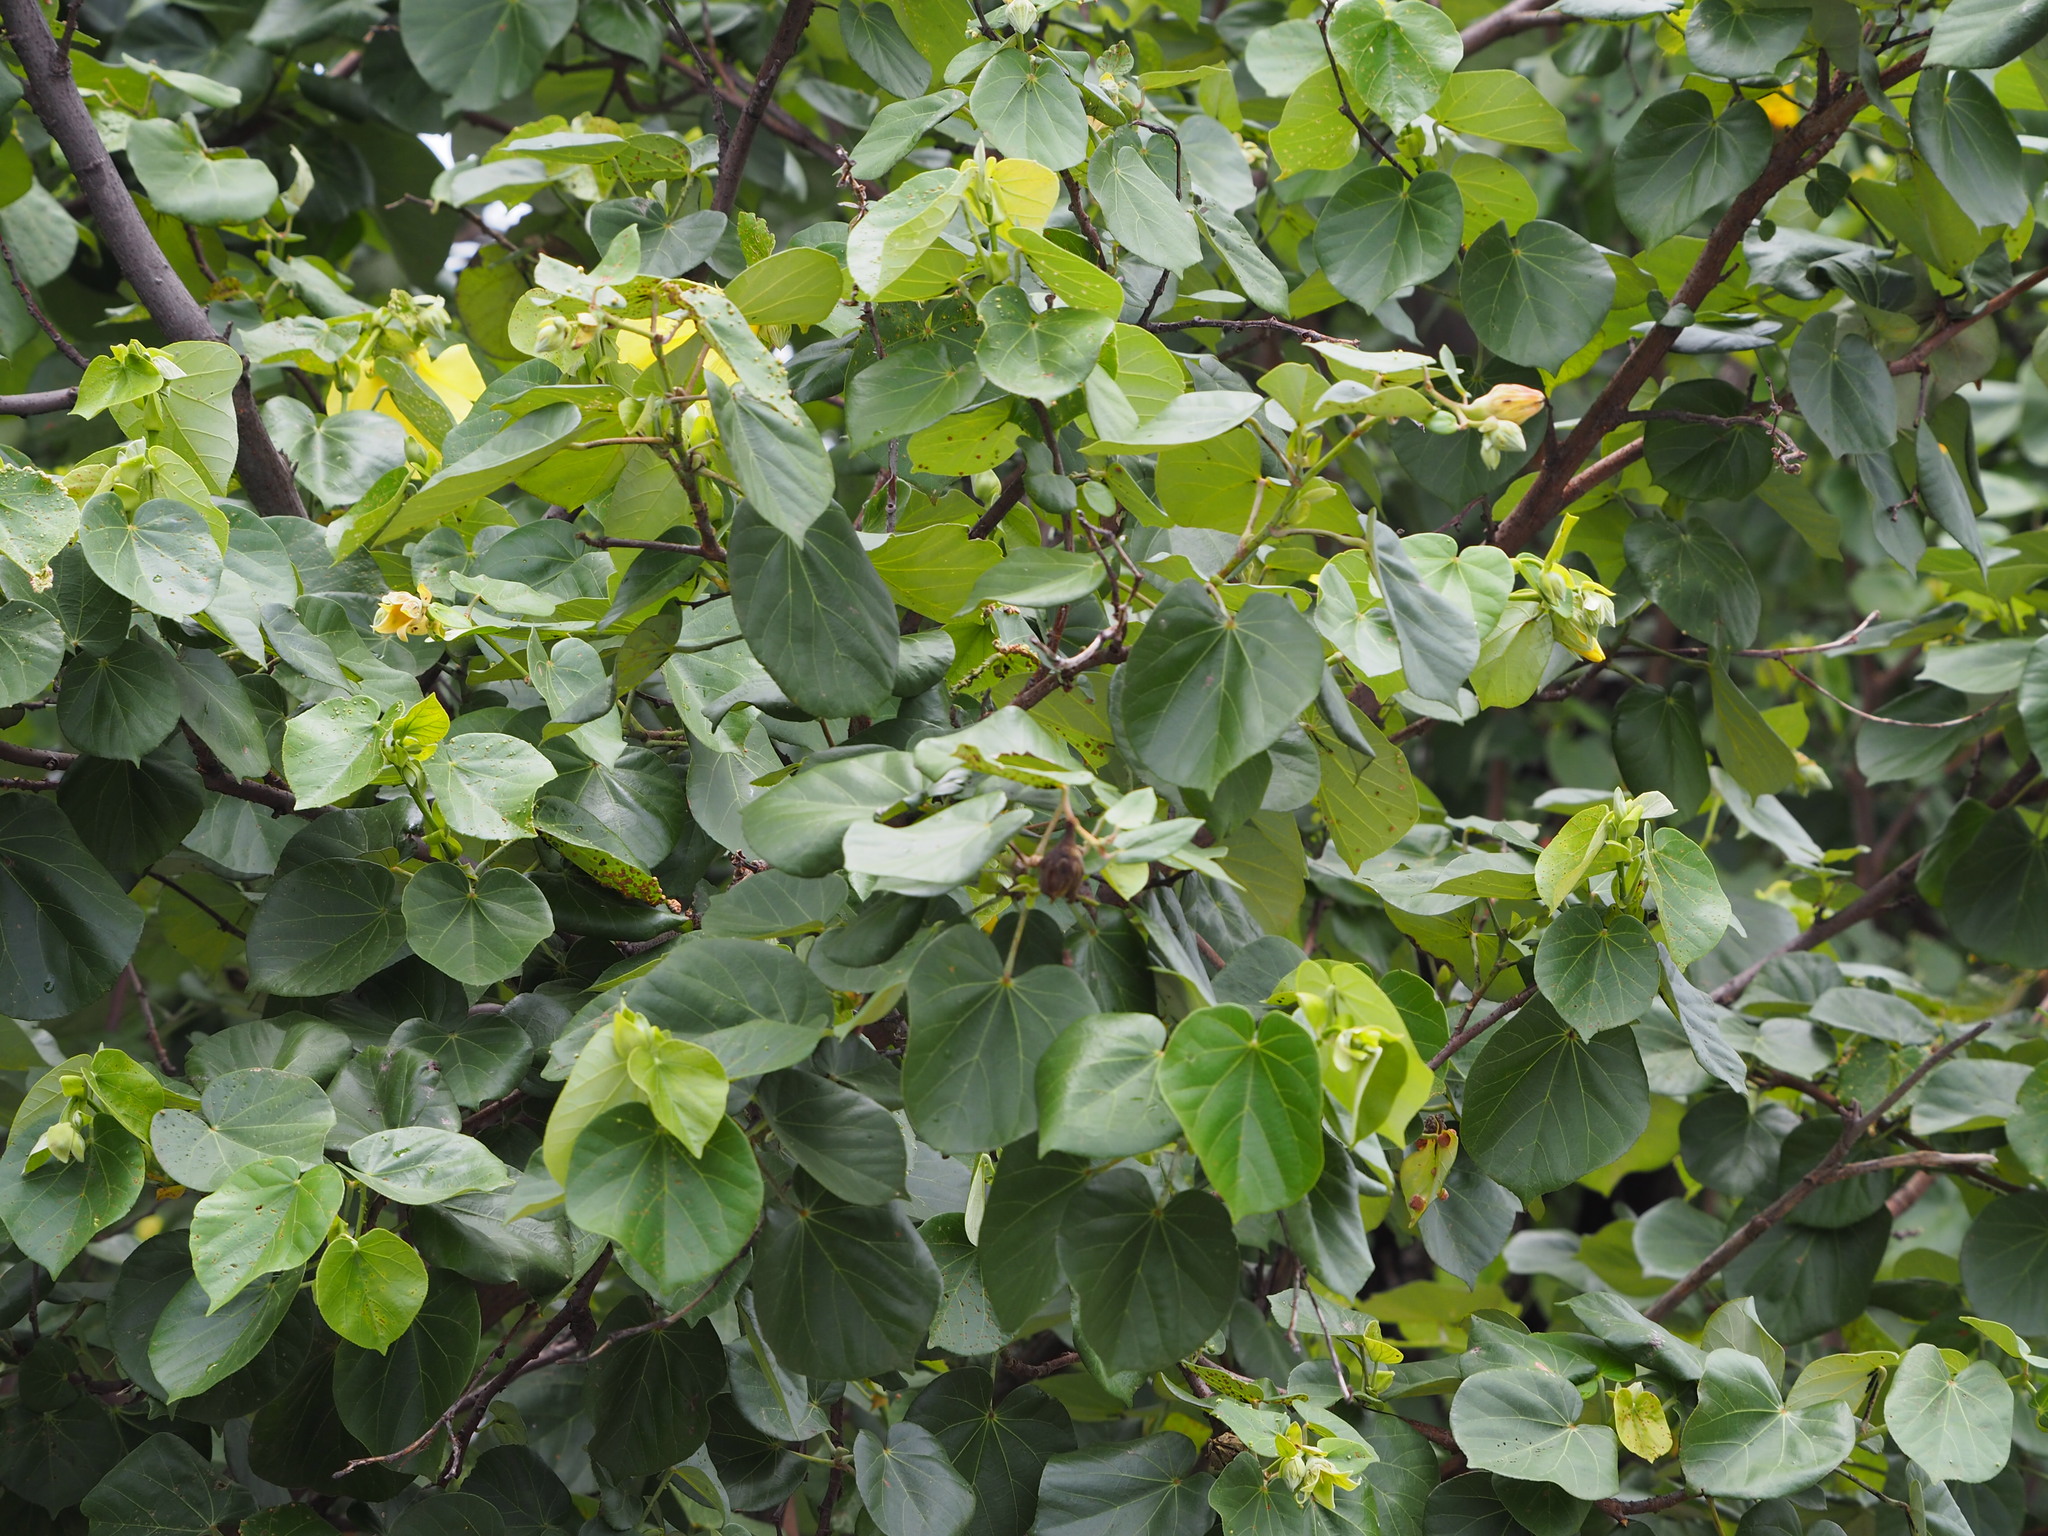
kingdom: Plantae
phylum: Tracheophyta
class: Magnoliopsida
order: Malvales
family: Malvaceae
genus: Talipariti
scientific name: Talipariti tiliaceum
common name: Sea hibiscus
